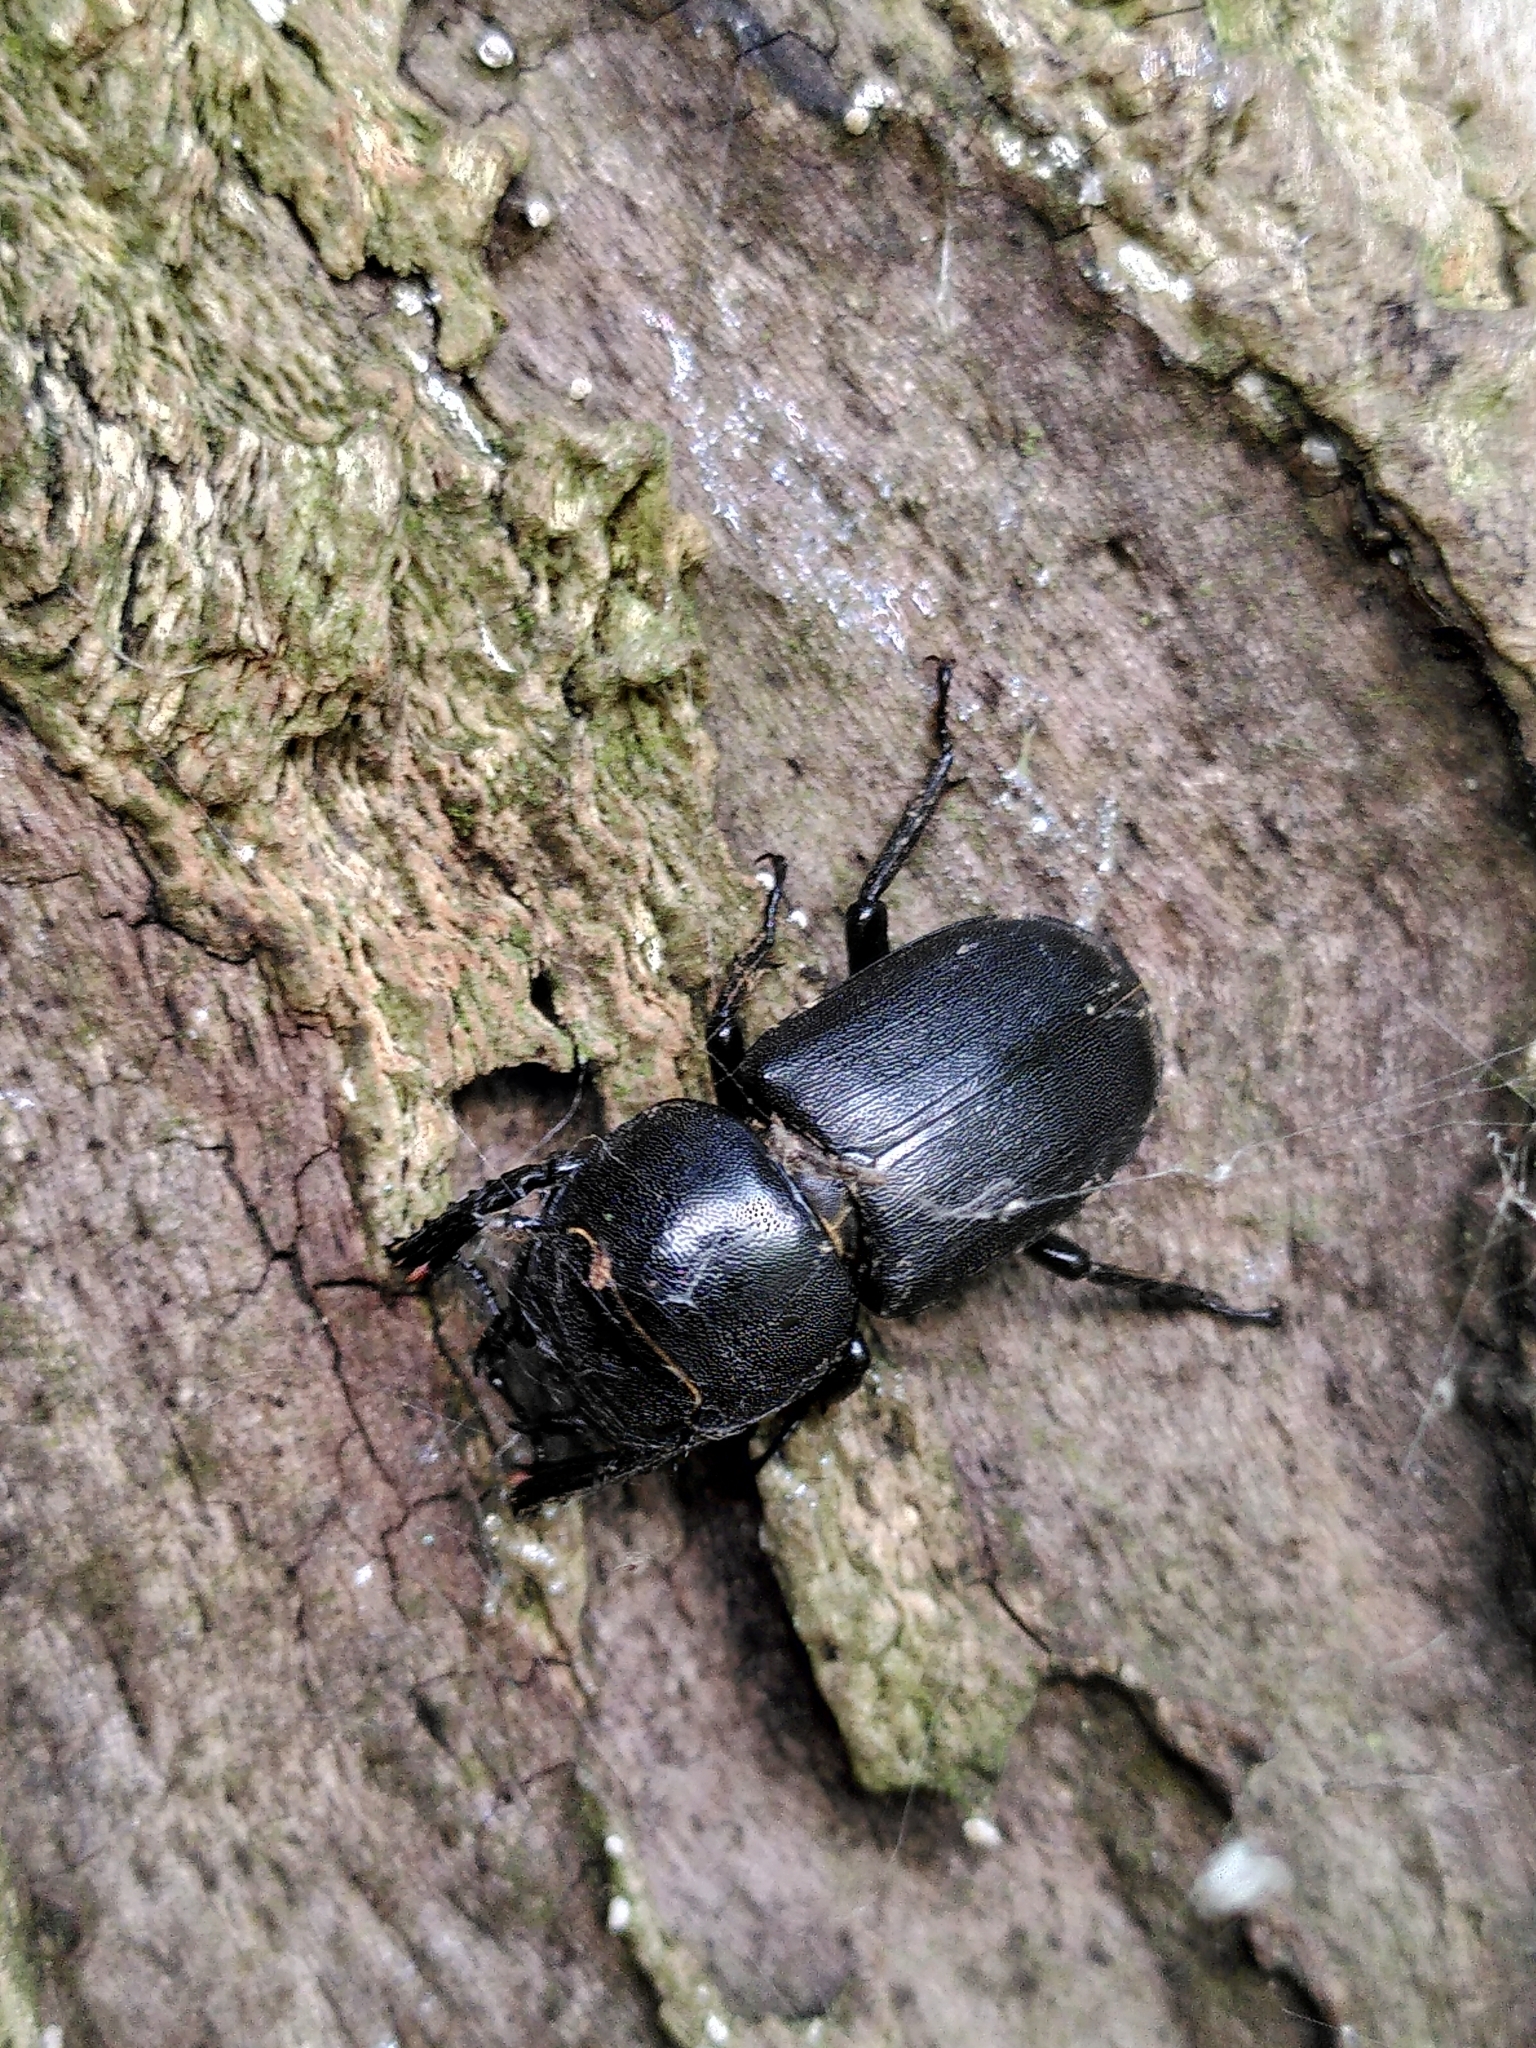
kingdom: Animalia
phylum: Arthropoda
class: Insecta
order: Coleoptera
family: Lucanidae
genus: Dorcus
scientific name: Dorcus parallelipipedus
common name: Lesser stag beetle
